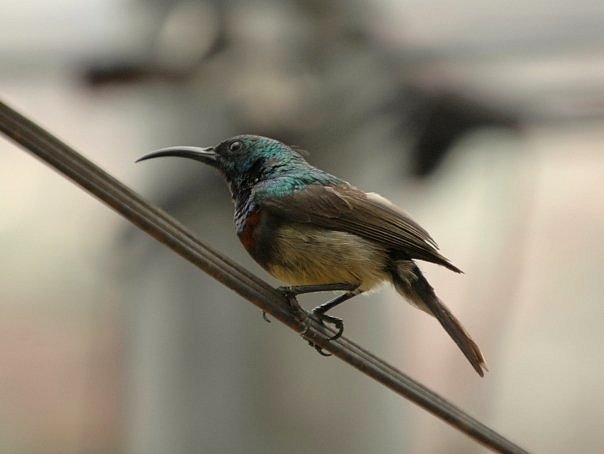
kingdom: Animalia
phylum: Chordata
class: Aves
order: Passeriformes
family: Nectariniidae
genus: Cinnyris
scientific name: Cinnyris sovimanga
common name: Souimanga sunbird
